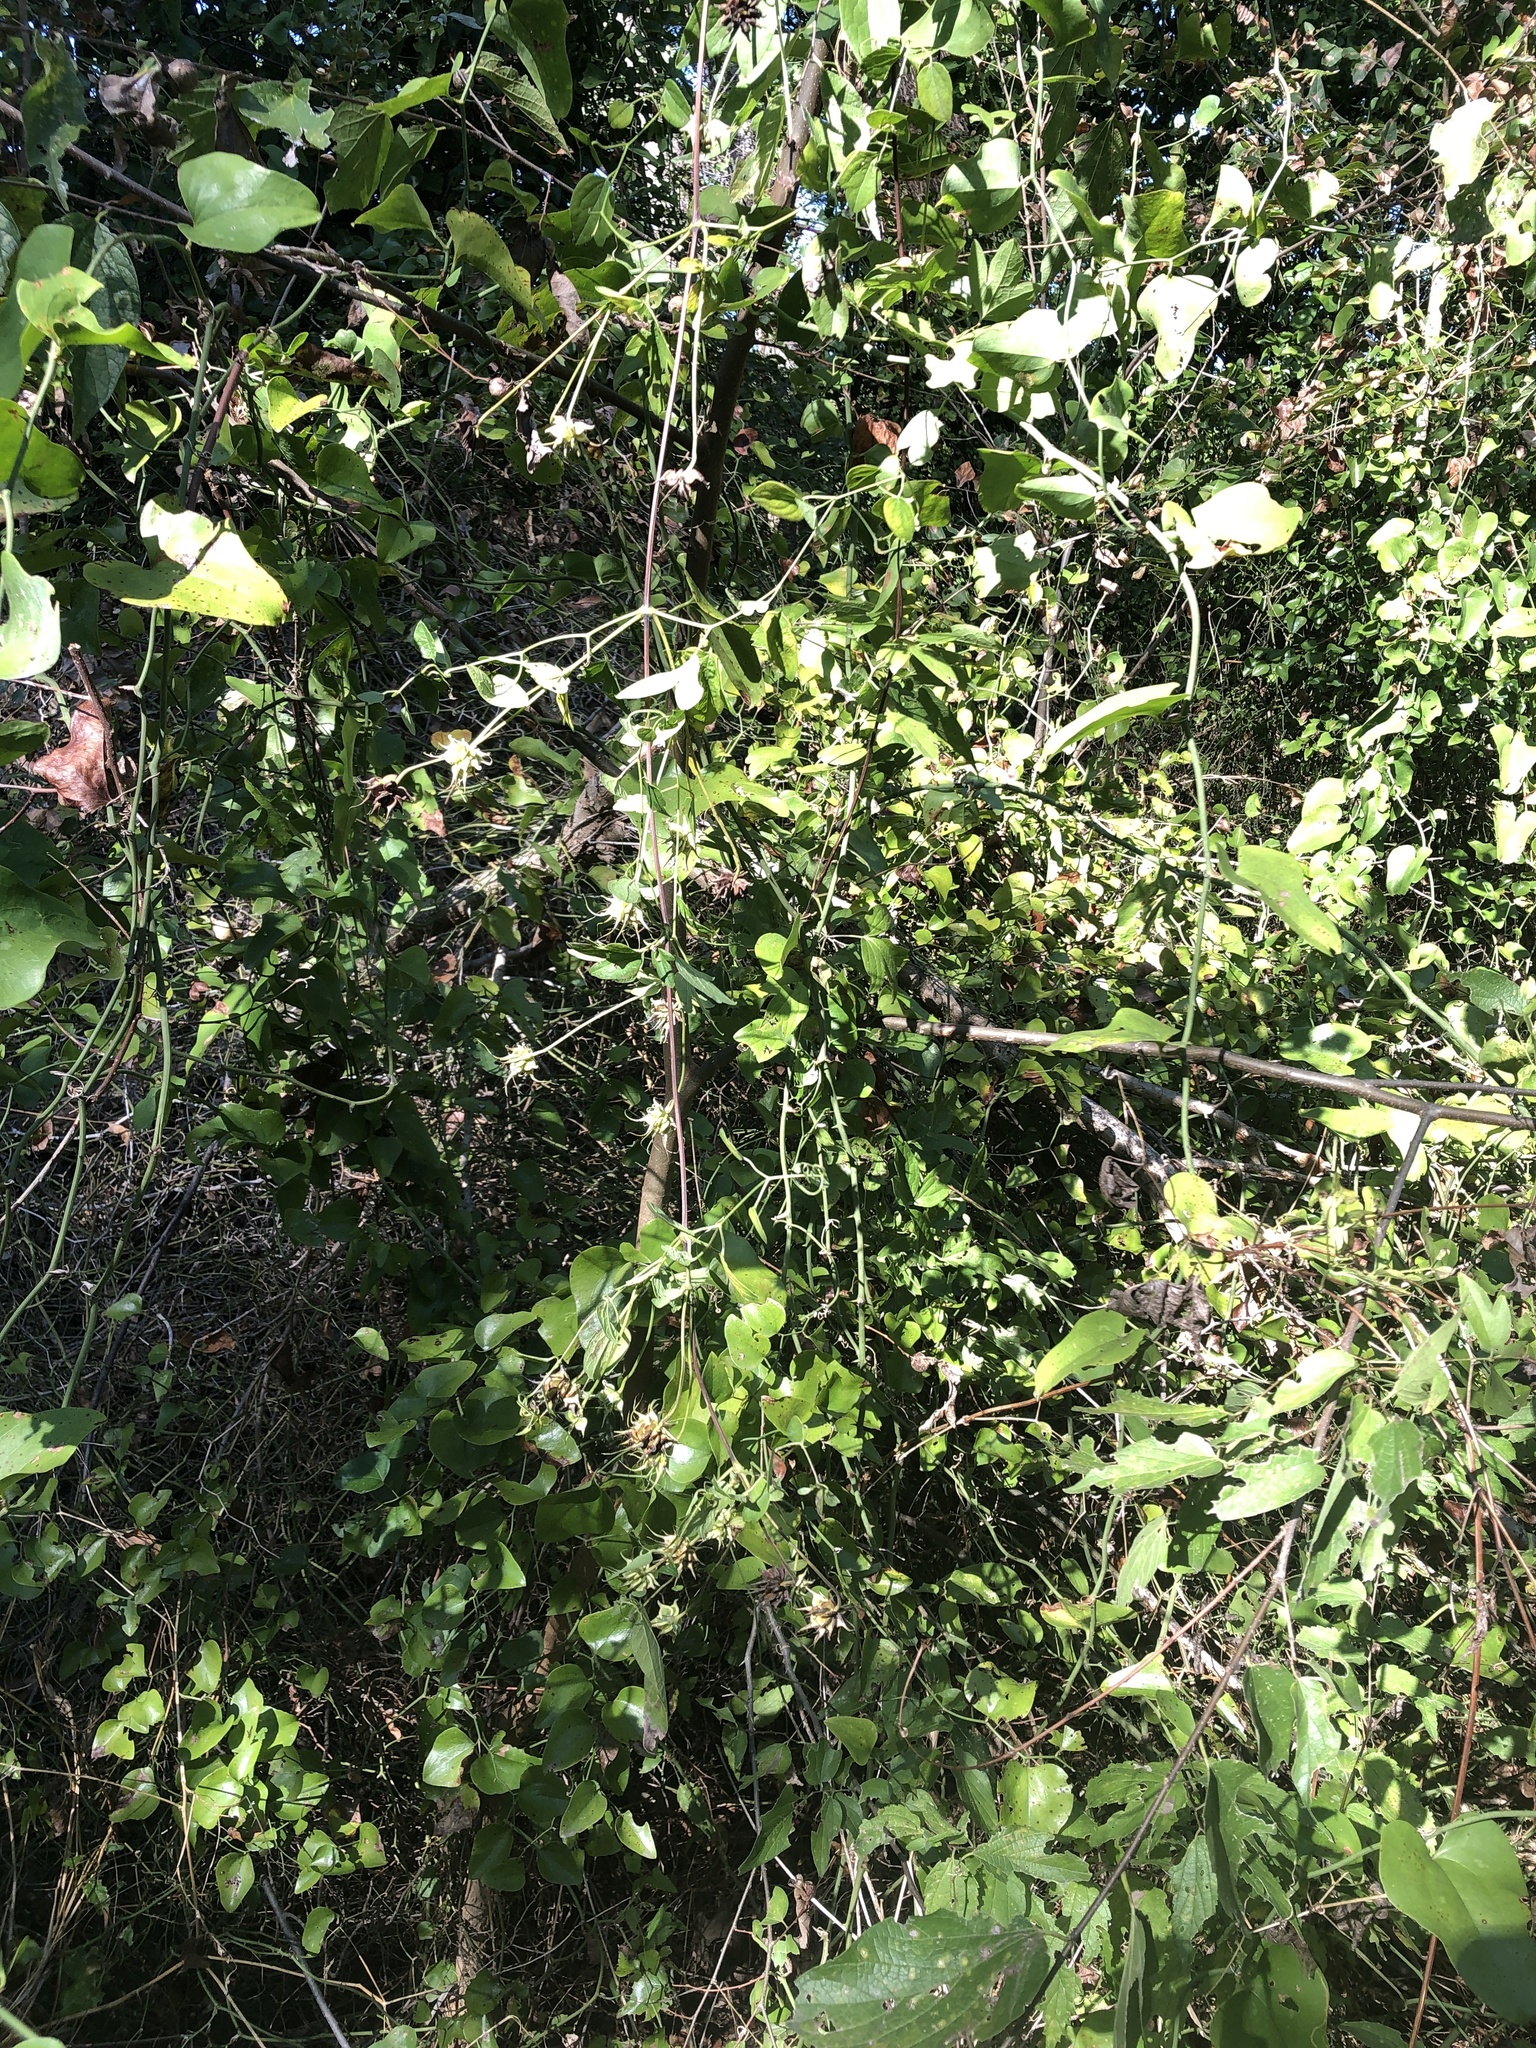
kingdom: Plantae
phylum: Tracheophyta
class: Magnoliopsida
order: Ranunculales
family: Ranunculaceae
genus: Clematis
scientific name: Clematis pitcheri
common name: Bellflower clematis
